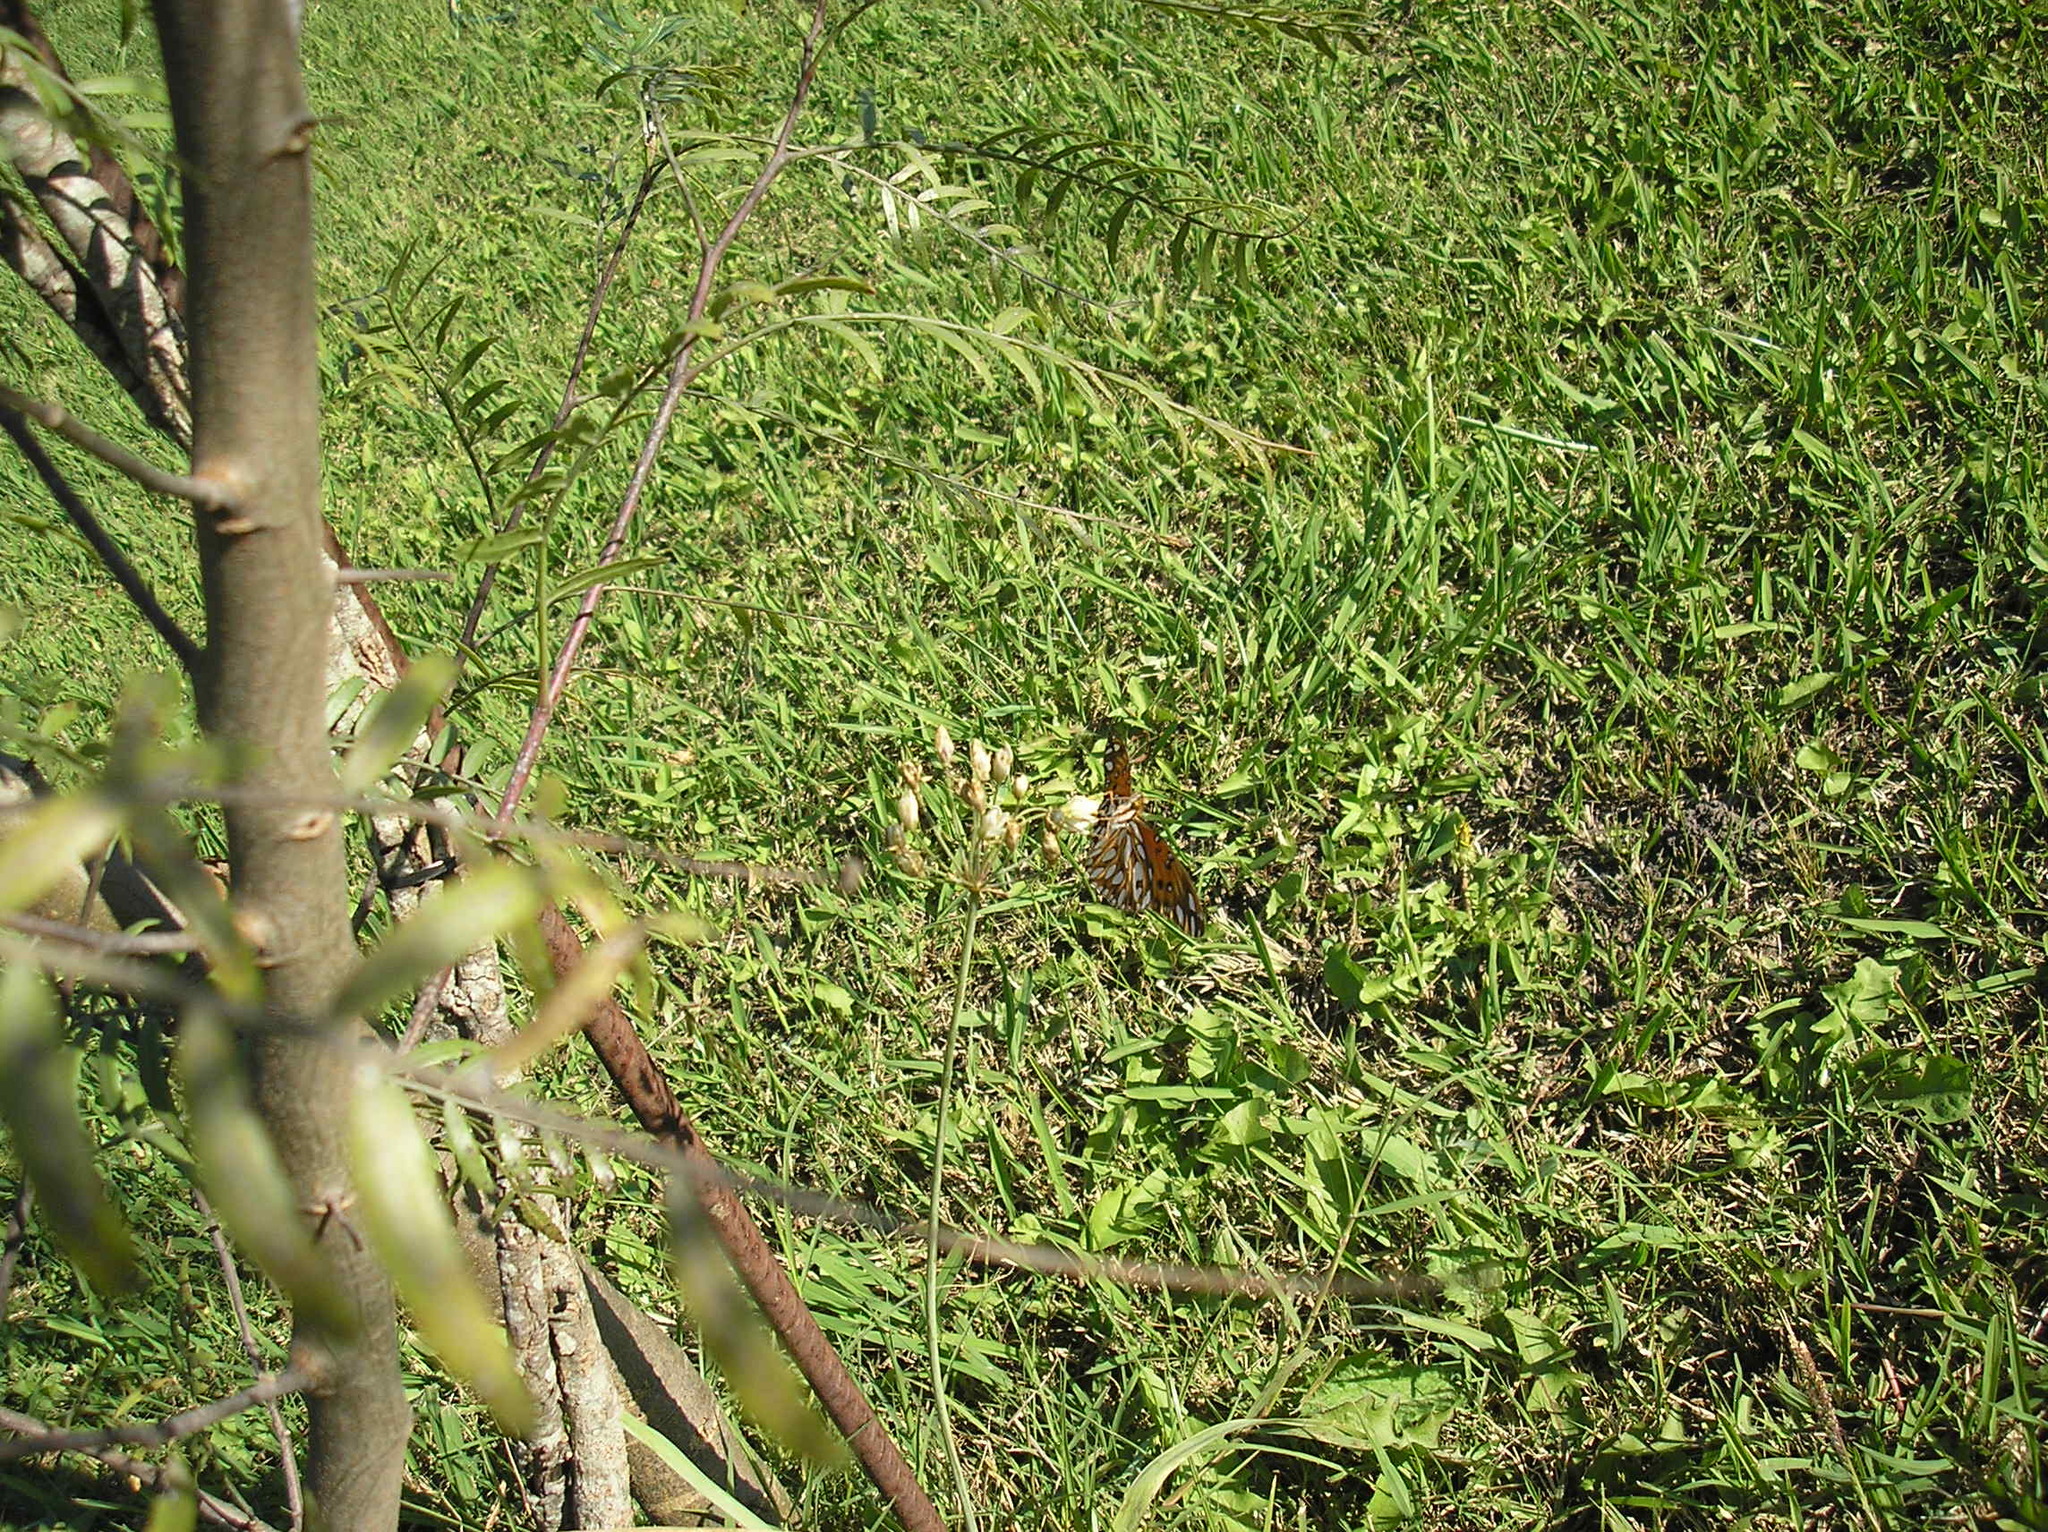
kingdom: Animalia
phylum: Arthropoda
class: Insecta
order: Lepidoptera
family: Nymphalidae
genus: Dione
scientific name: Dione vanillae
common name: Gulf fritillary
